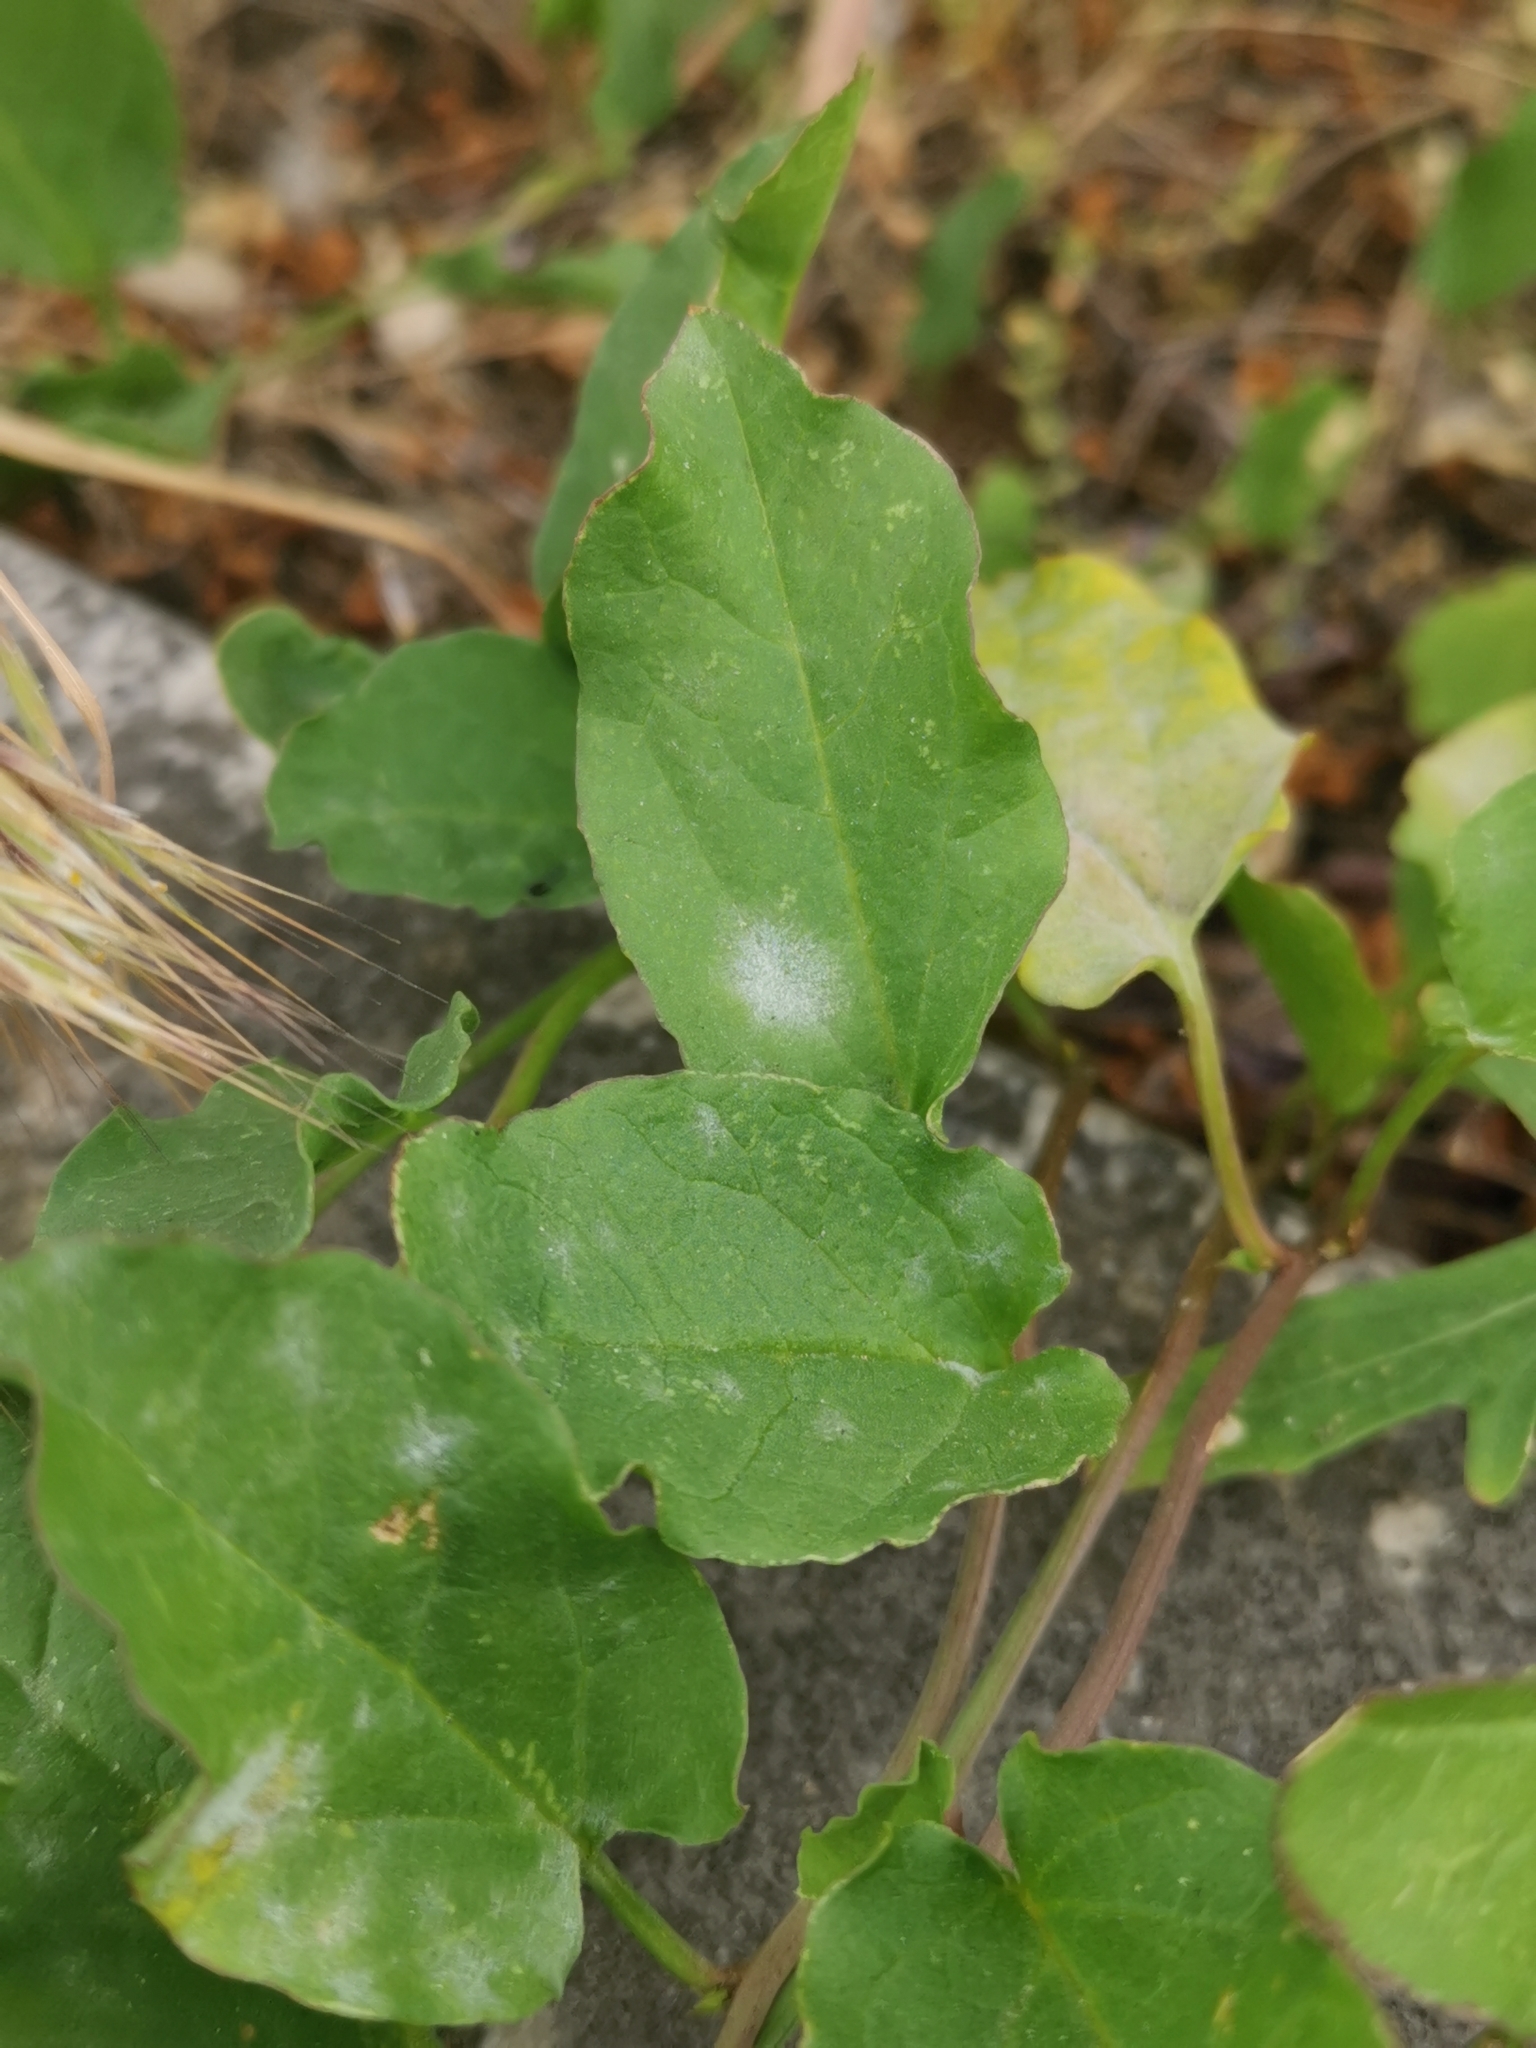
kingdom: Fungi
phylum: Ascomycota
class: Leotiomycetes
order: Helotiales
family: Erysiphaceae
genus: Erysiphe
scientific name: Erysiphe convolvuli
